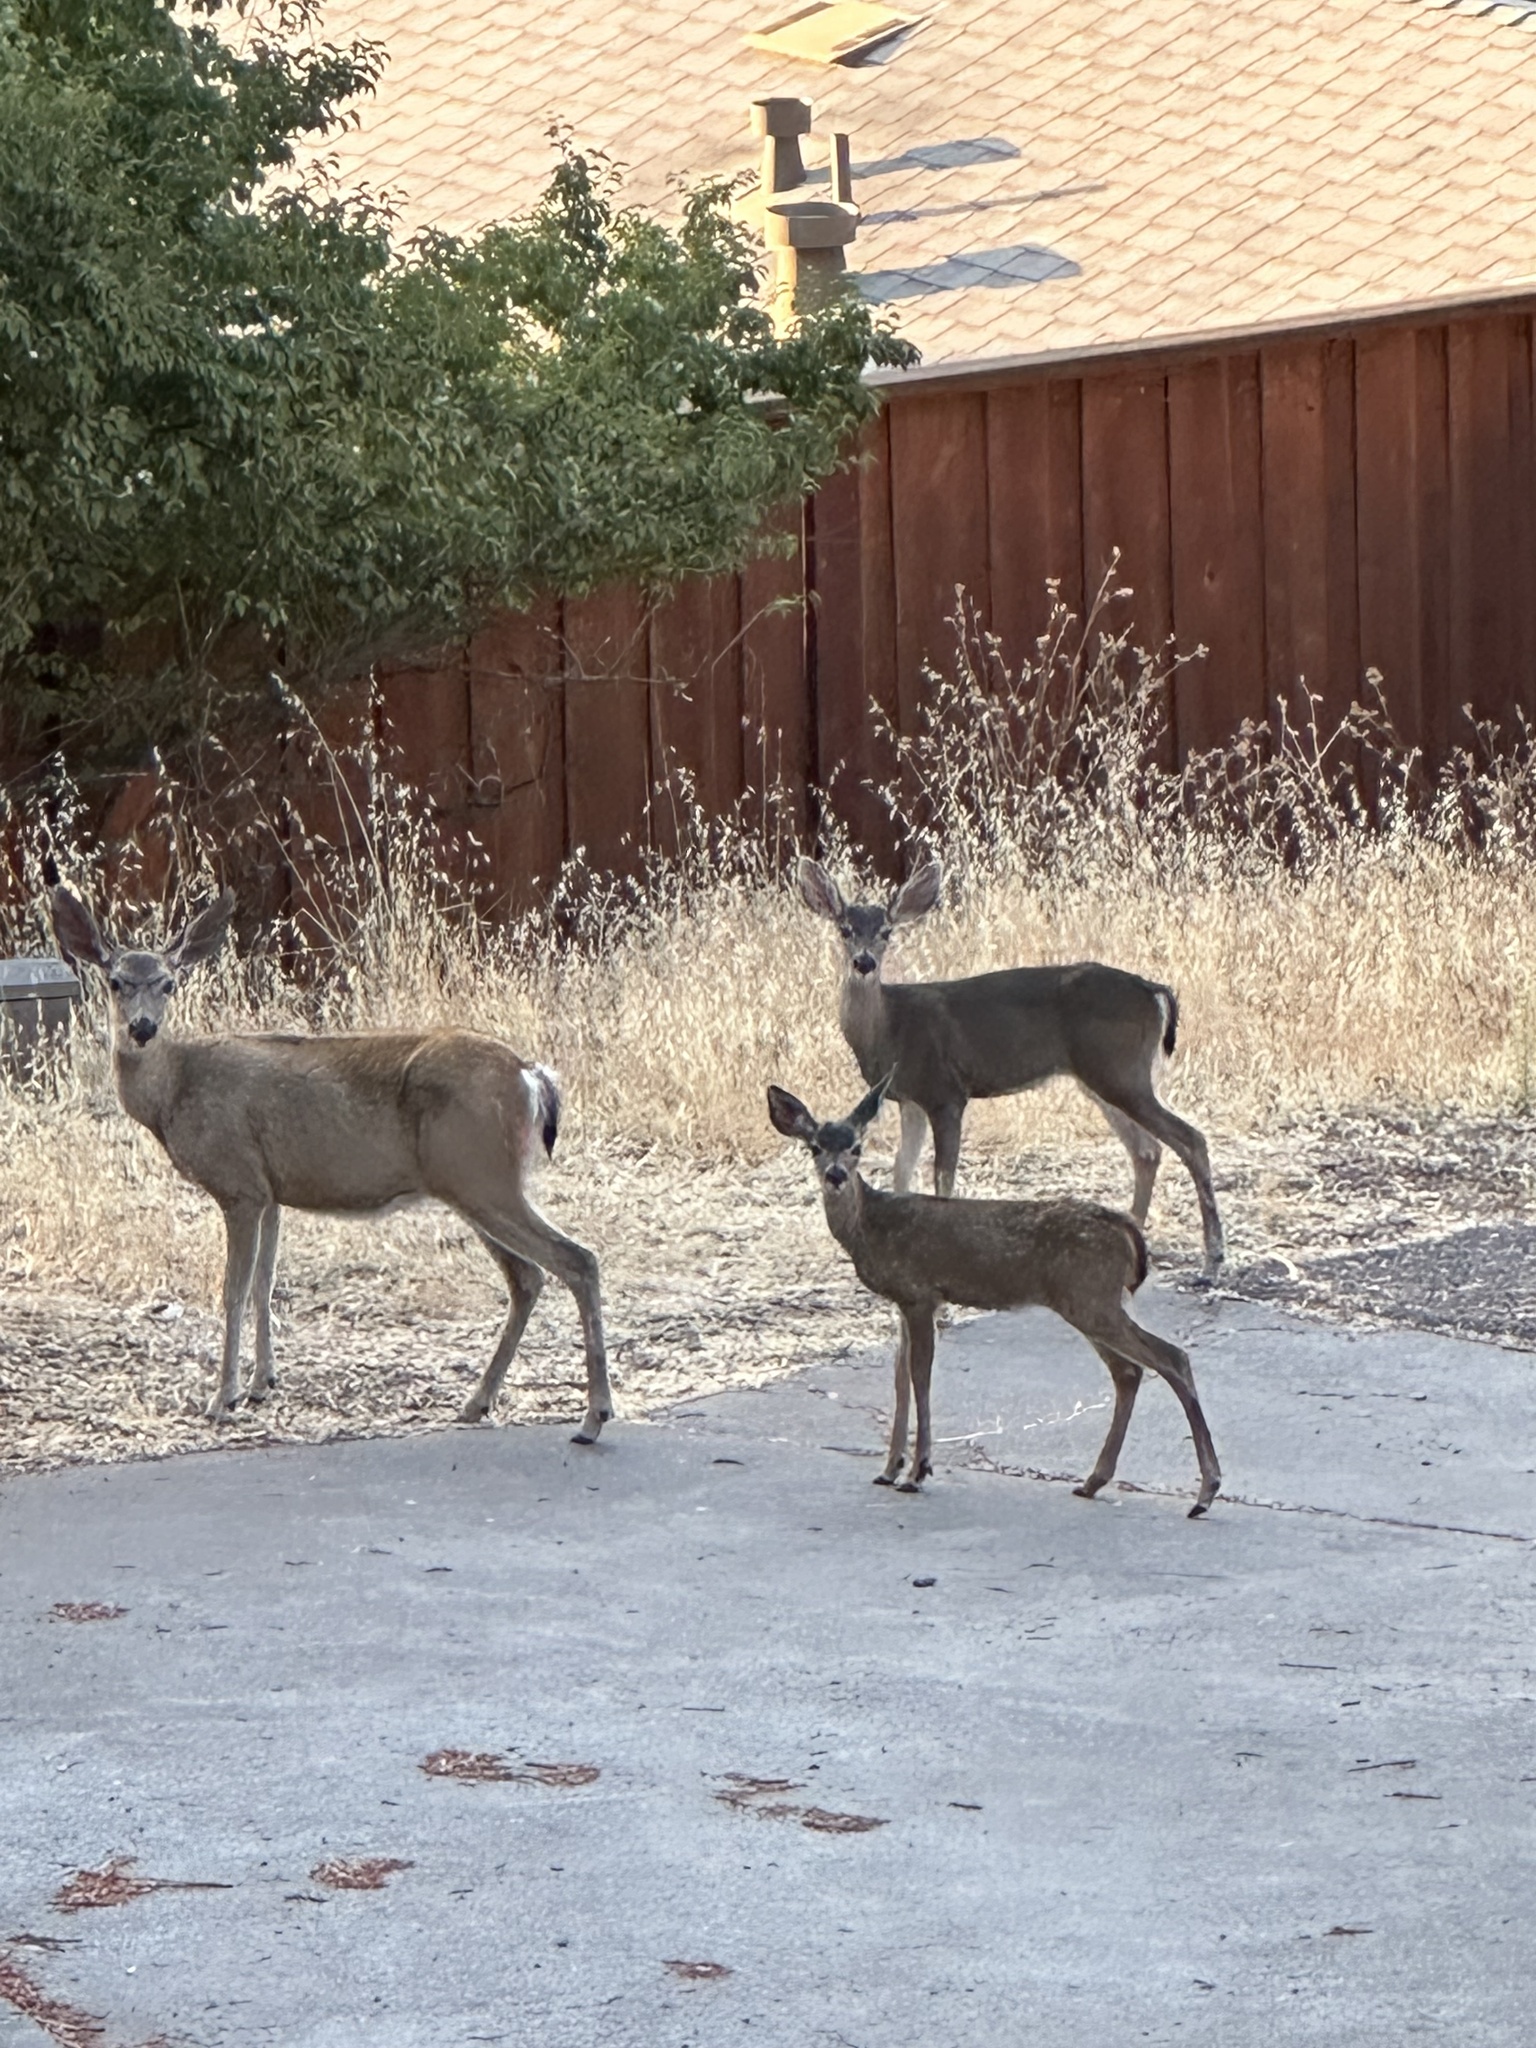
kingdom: Animalia
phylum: Chordata
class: Mammalia
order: Artiodactyla
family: Cervidae
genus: Odocoileus
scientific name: Odocoileus hemionus
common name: Mule deer
